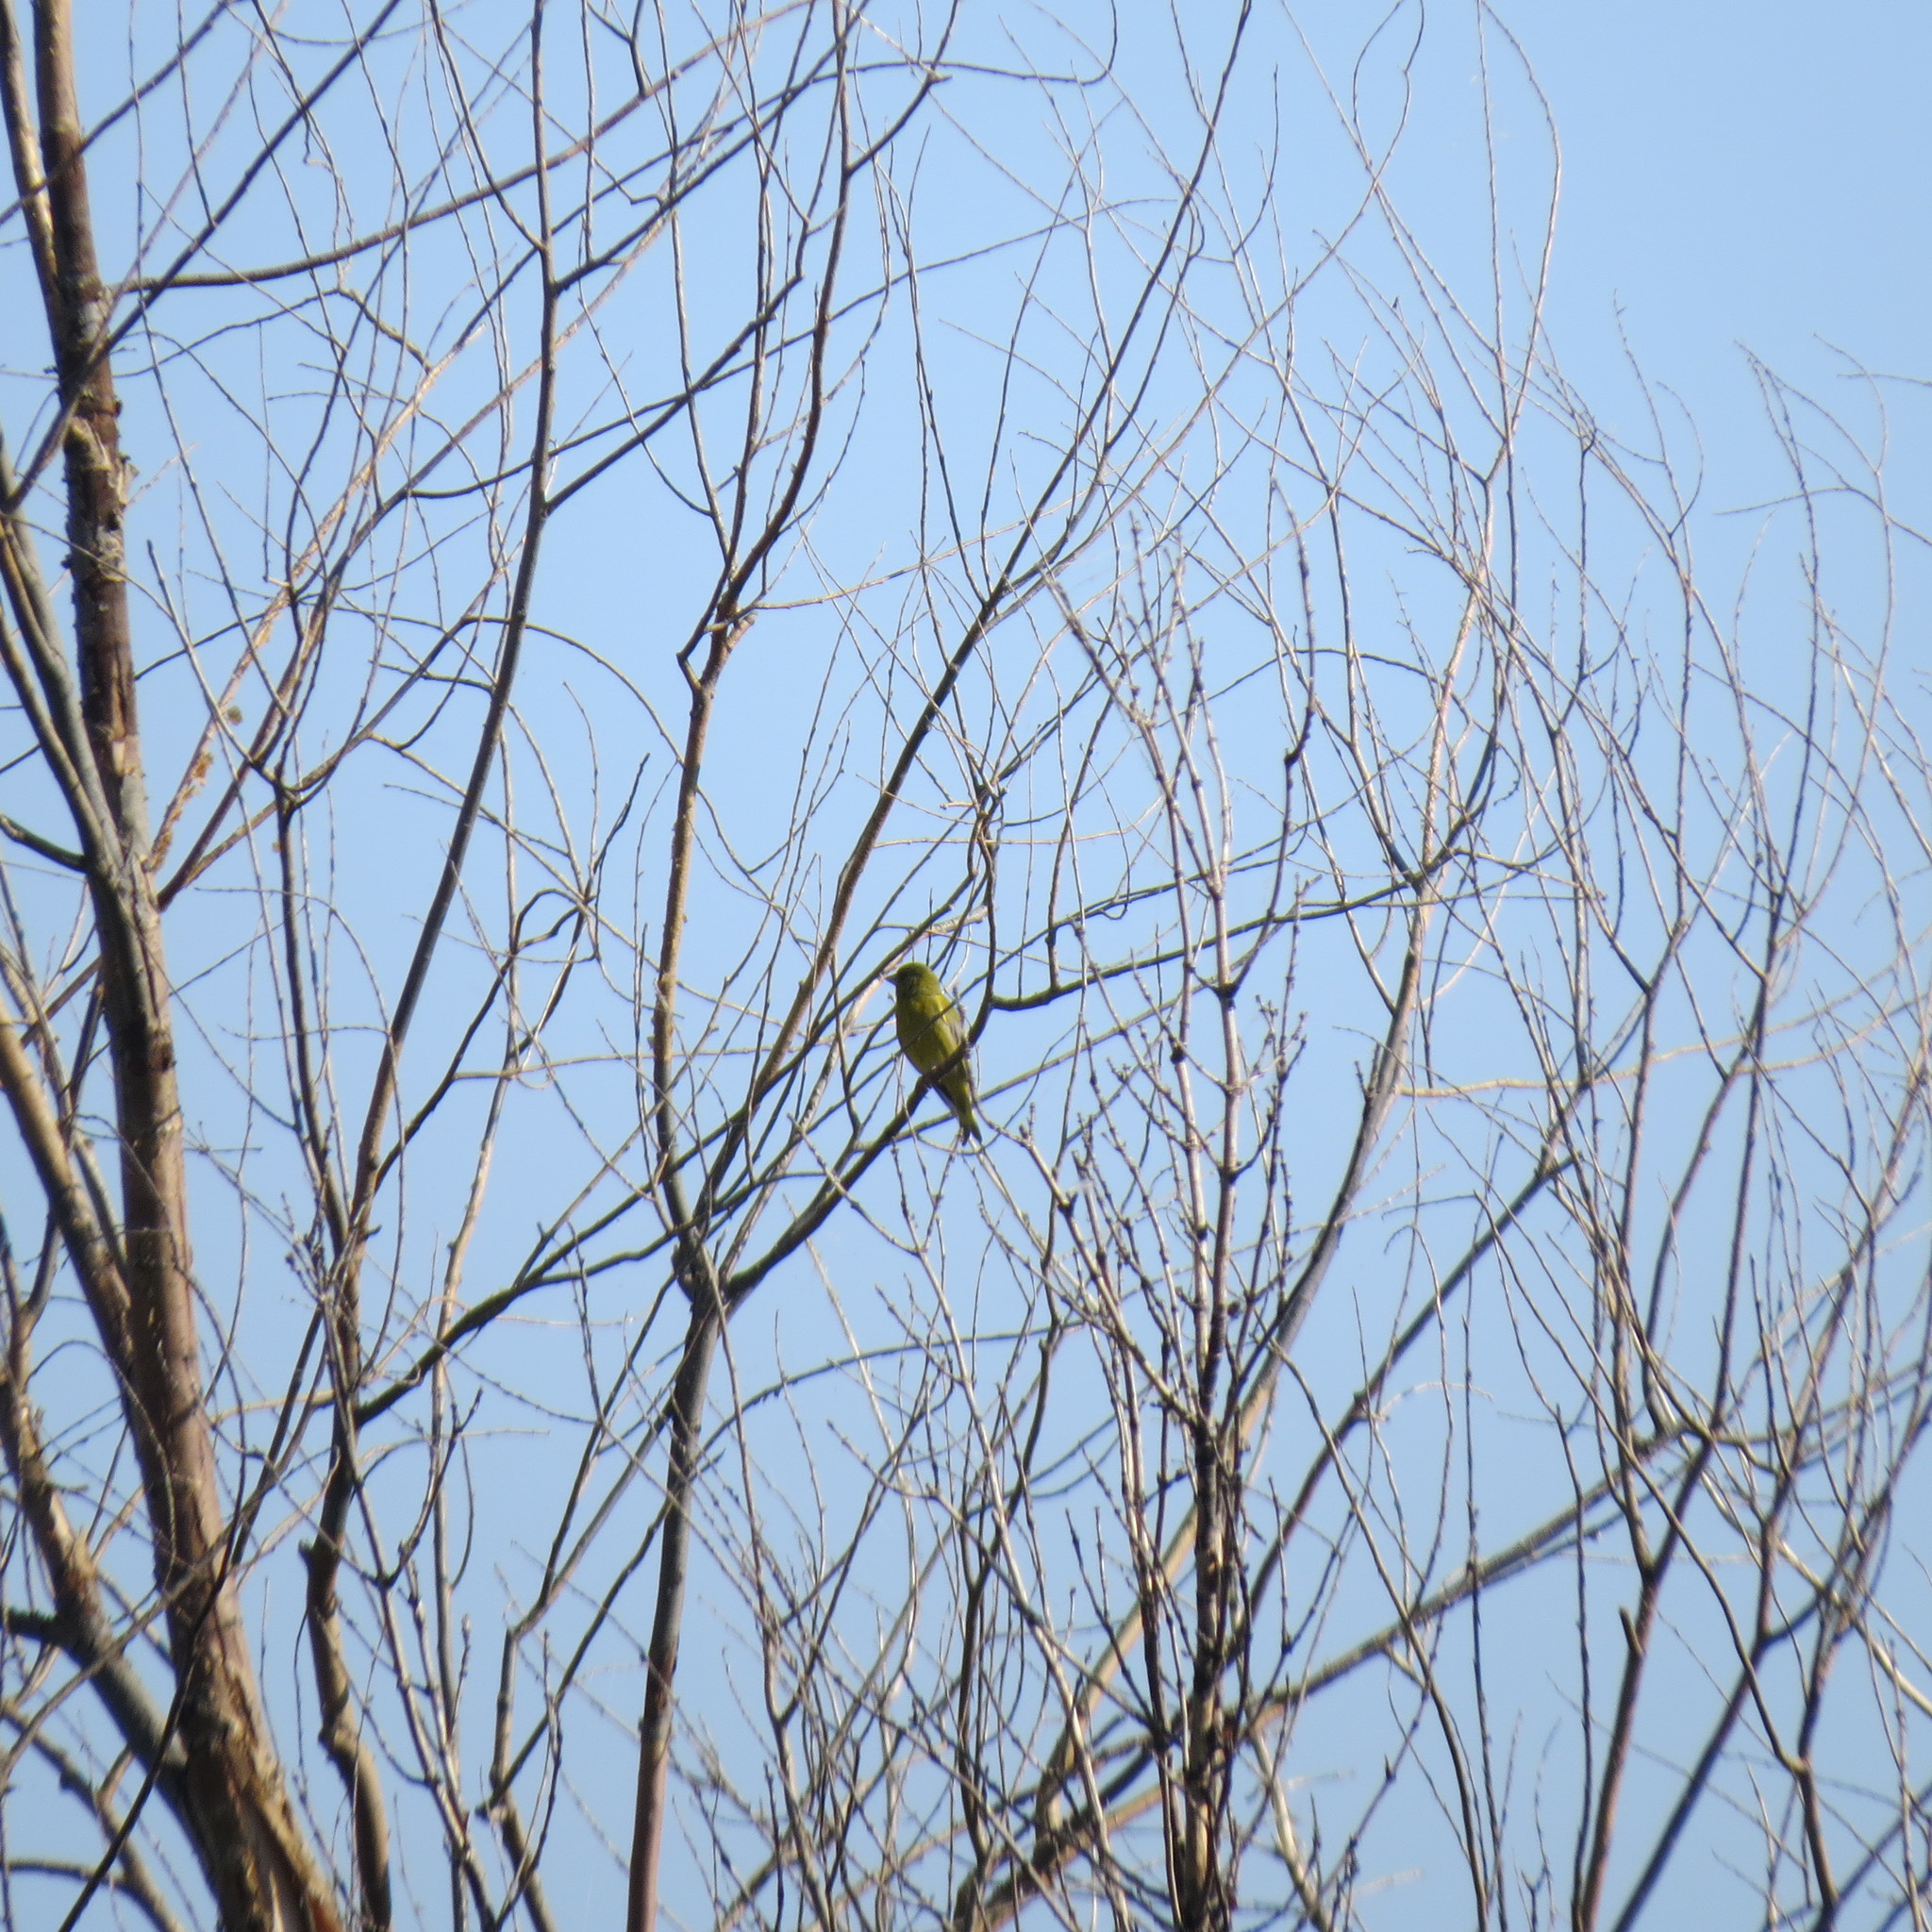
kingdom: Plantae
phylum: Tracheophyta
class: Liliopsida
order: Poales
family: Poaceae
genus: Chloris
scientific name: Chloris chloris
